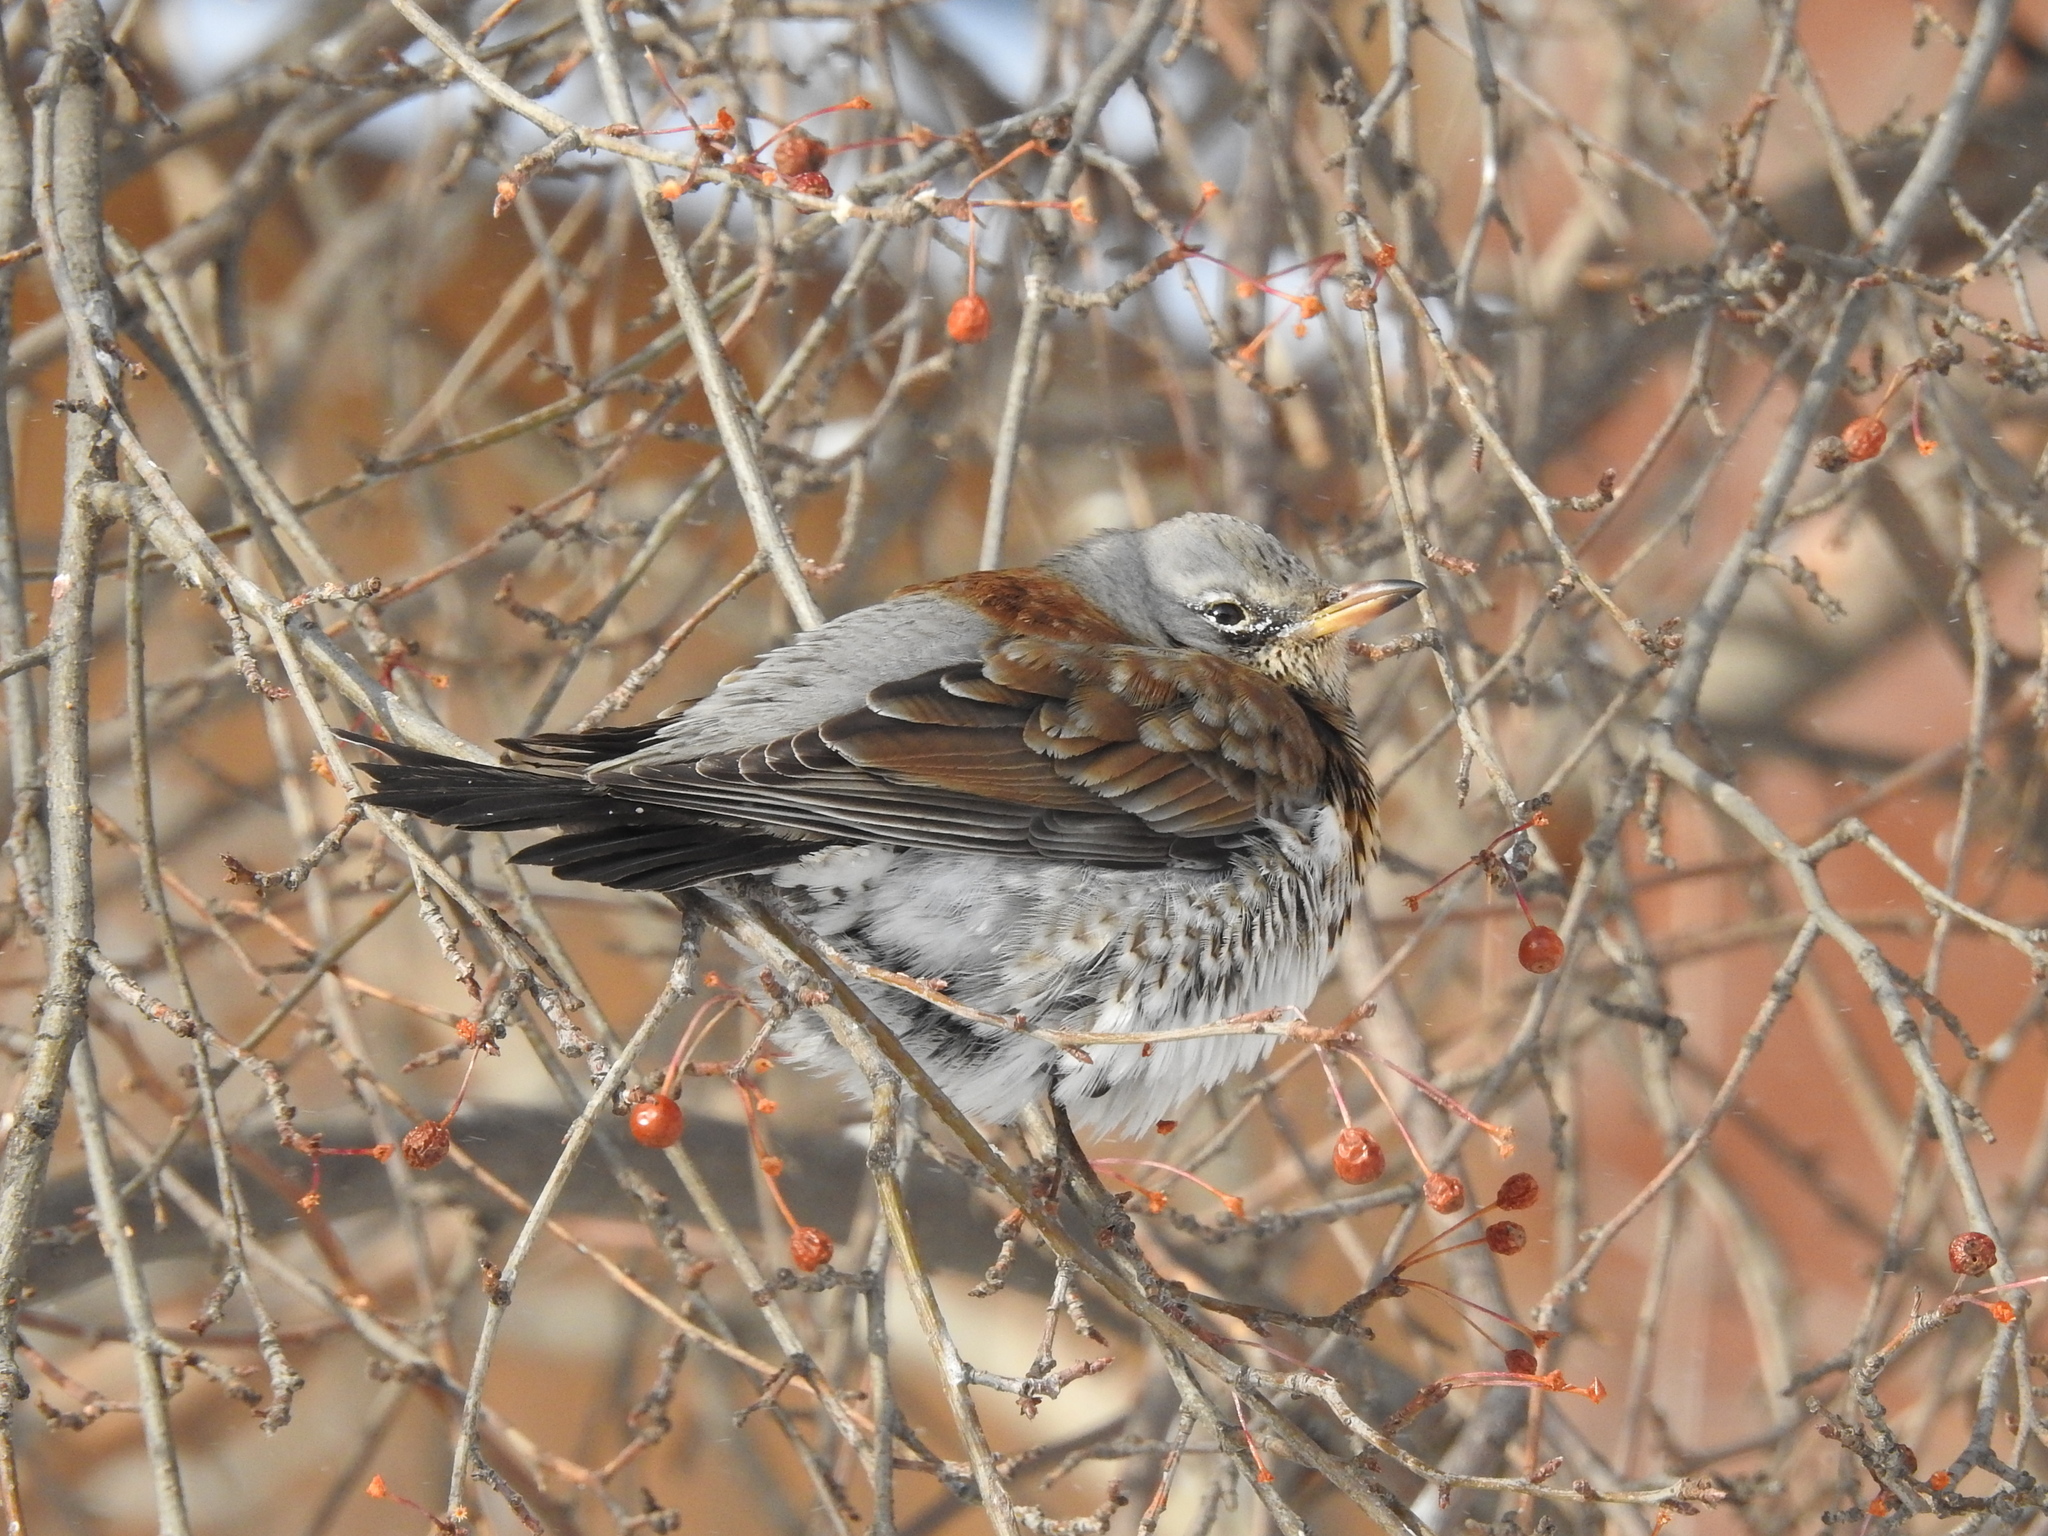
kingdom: Animalia
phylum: Chordata
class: Aves
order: Passeriformes
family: Turdidae
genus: Turdus
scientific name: Turdus pilaris
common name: Fieldfare
